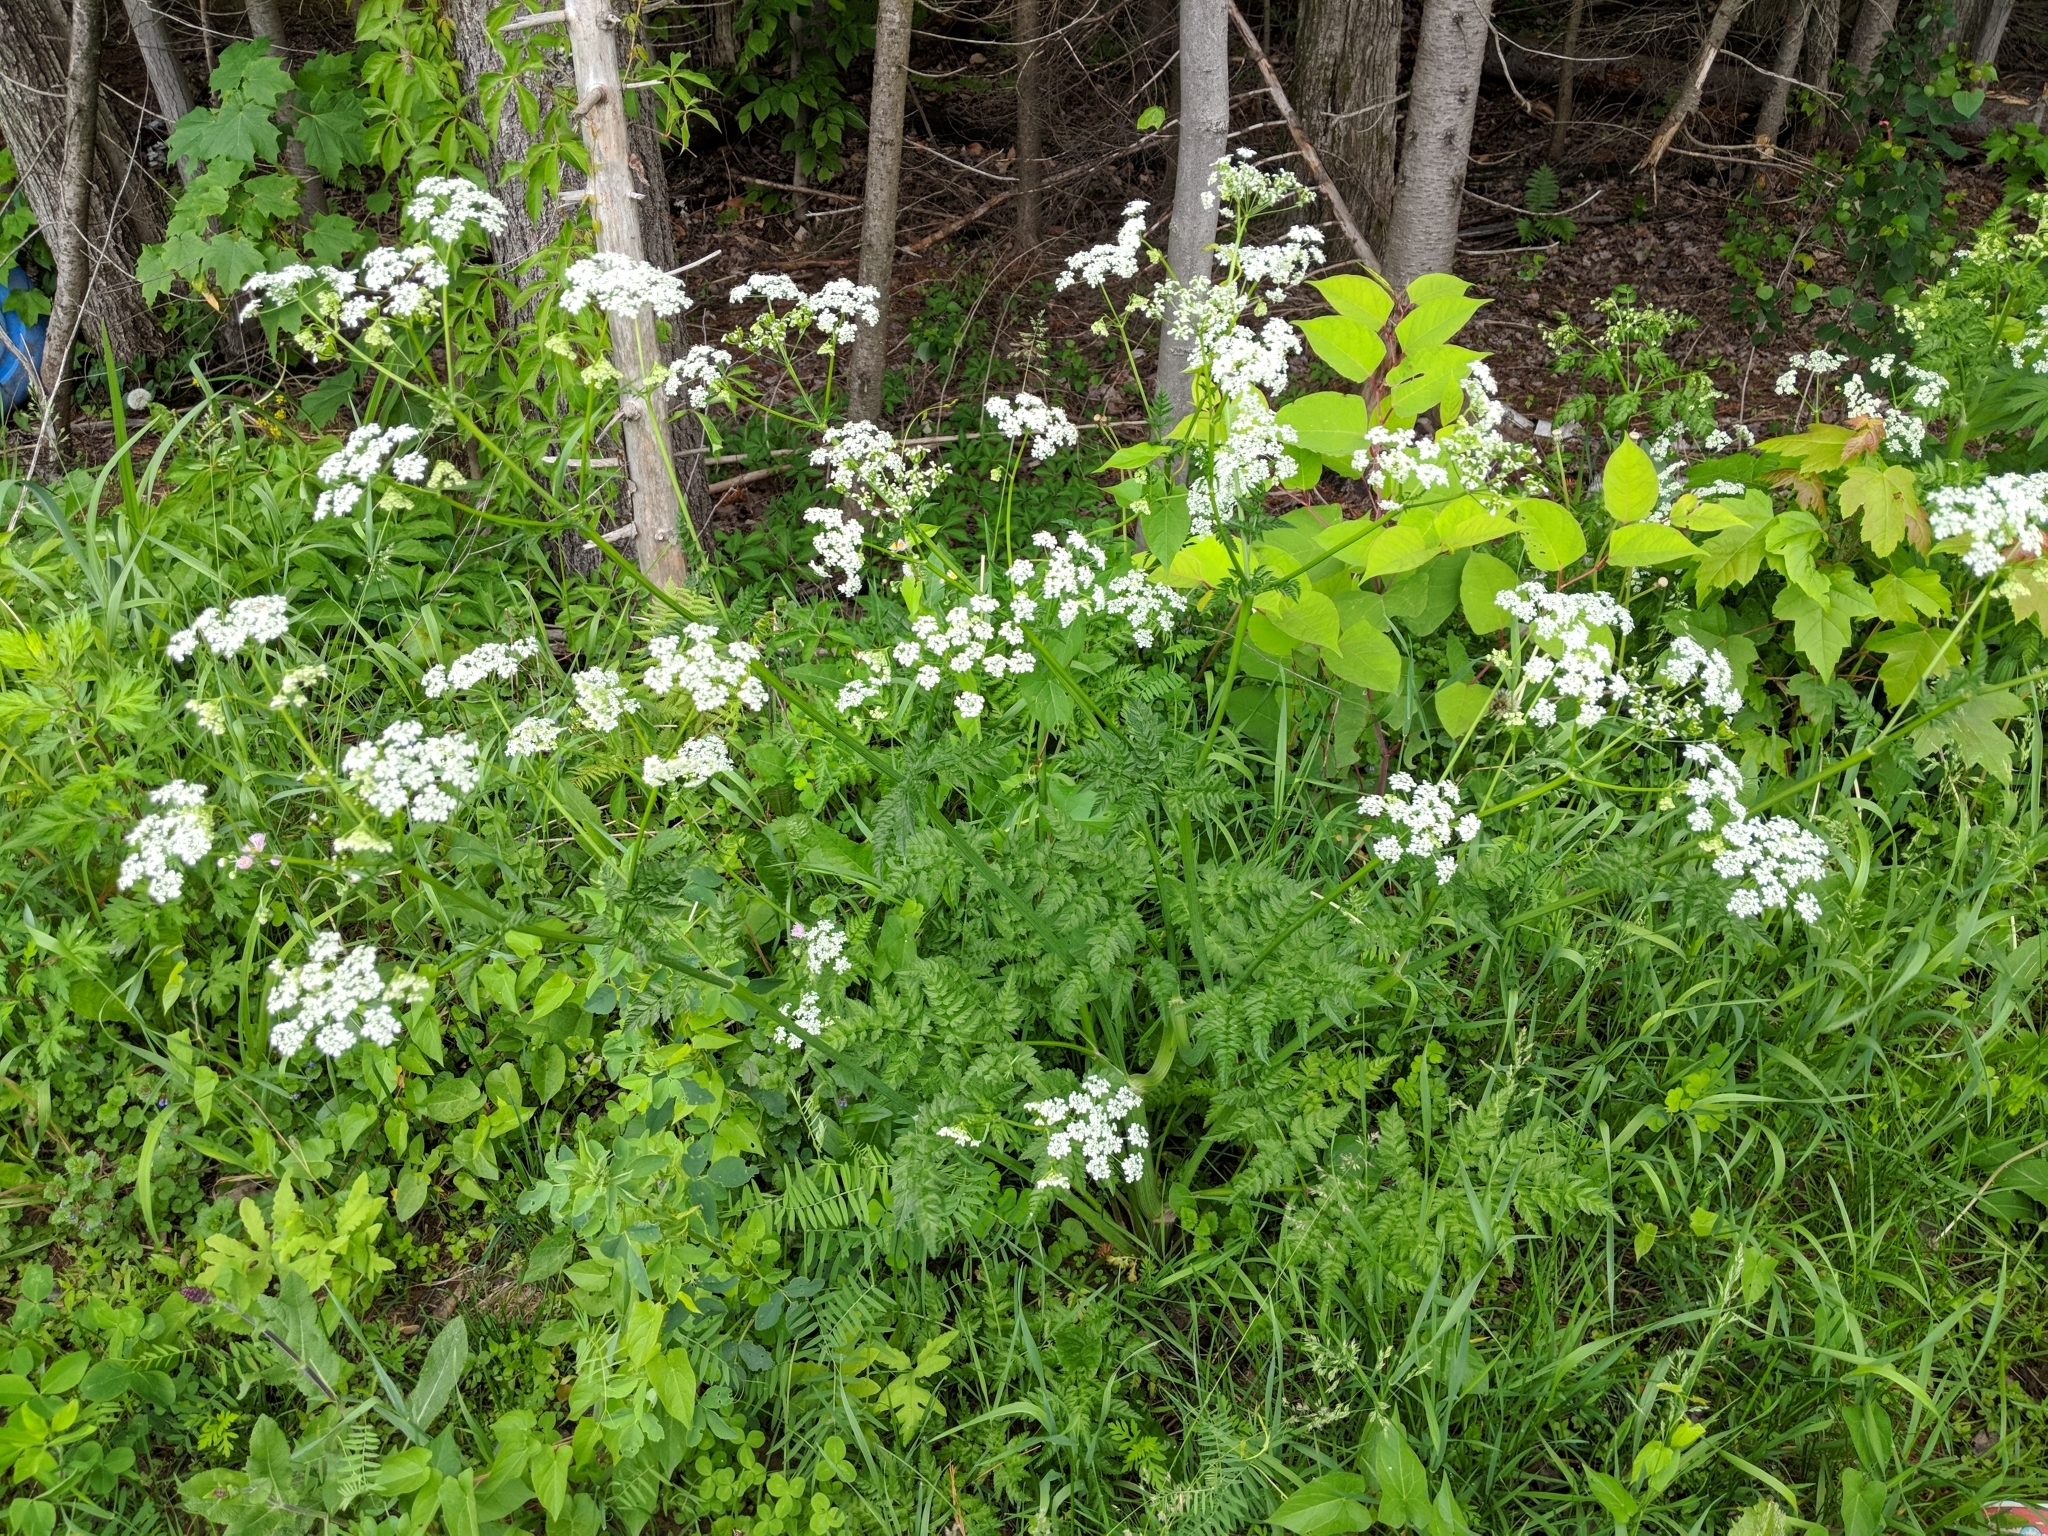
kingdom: Plantae
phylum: Tracheophyta
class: Magnoliopsida
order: Apiales
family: Apiaceae
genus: Anthriscus
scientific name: Anthriscus sylvestris
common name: Cow parsley
